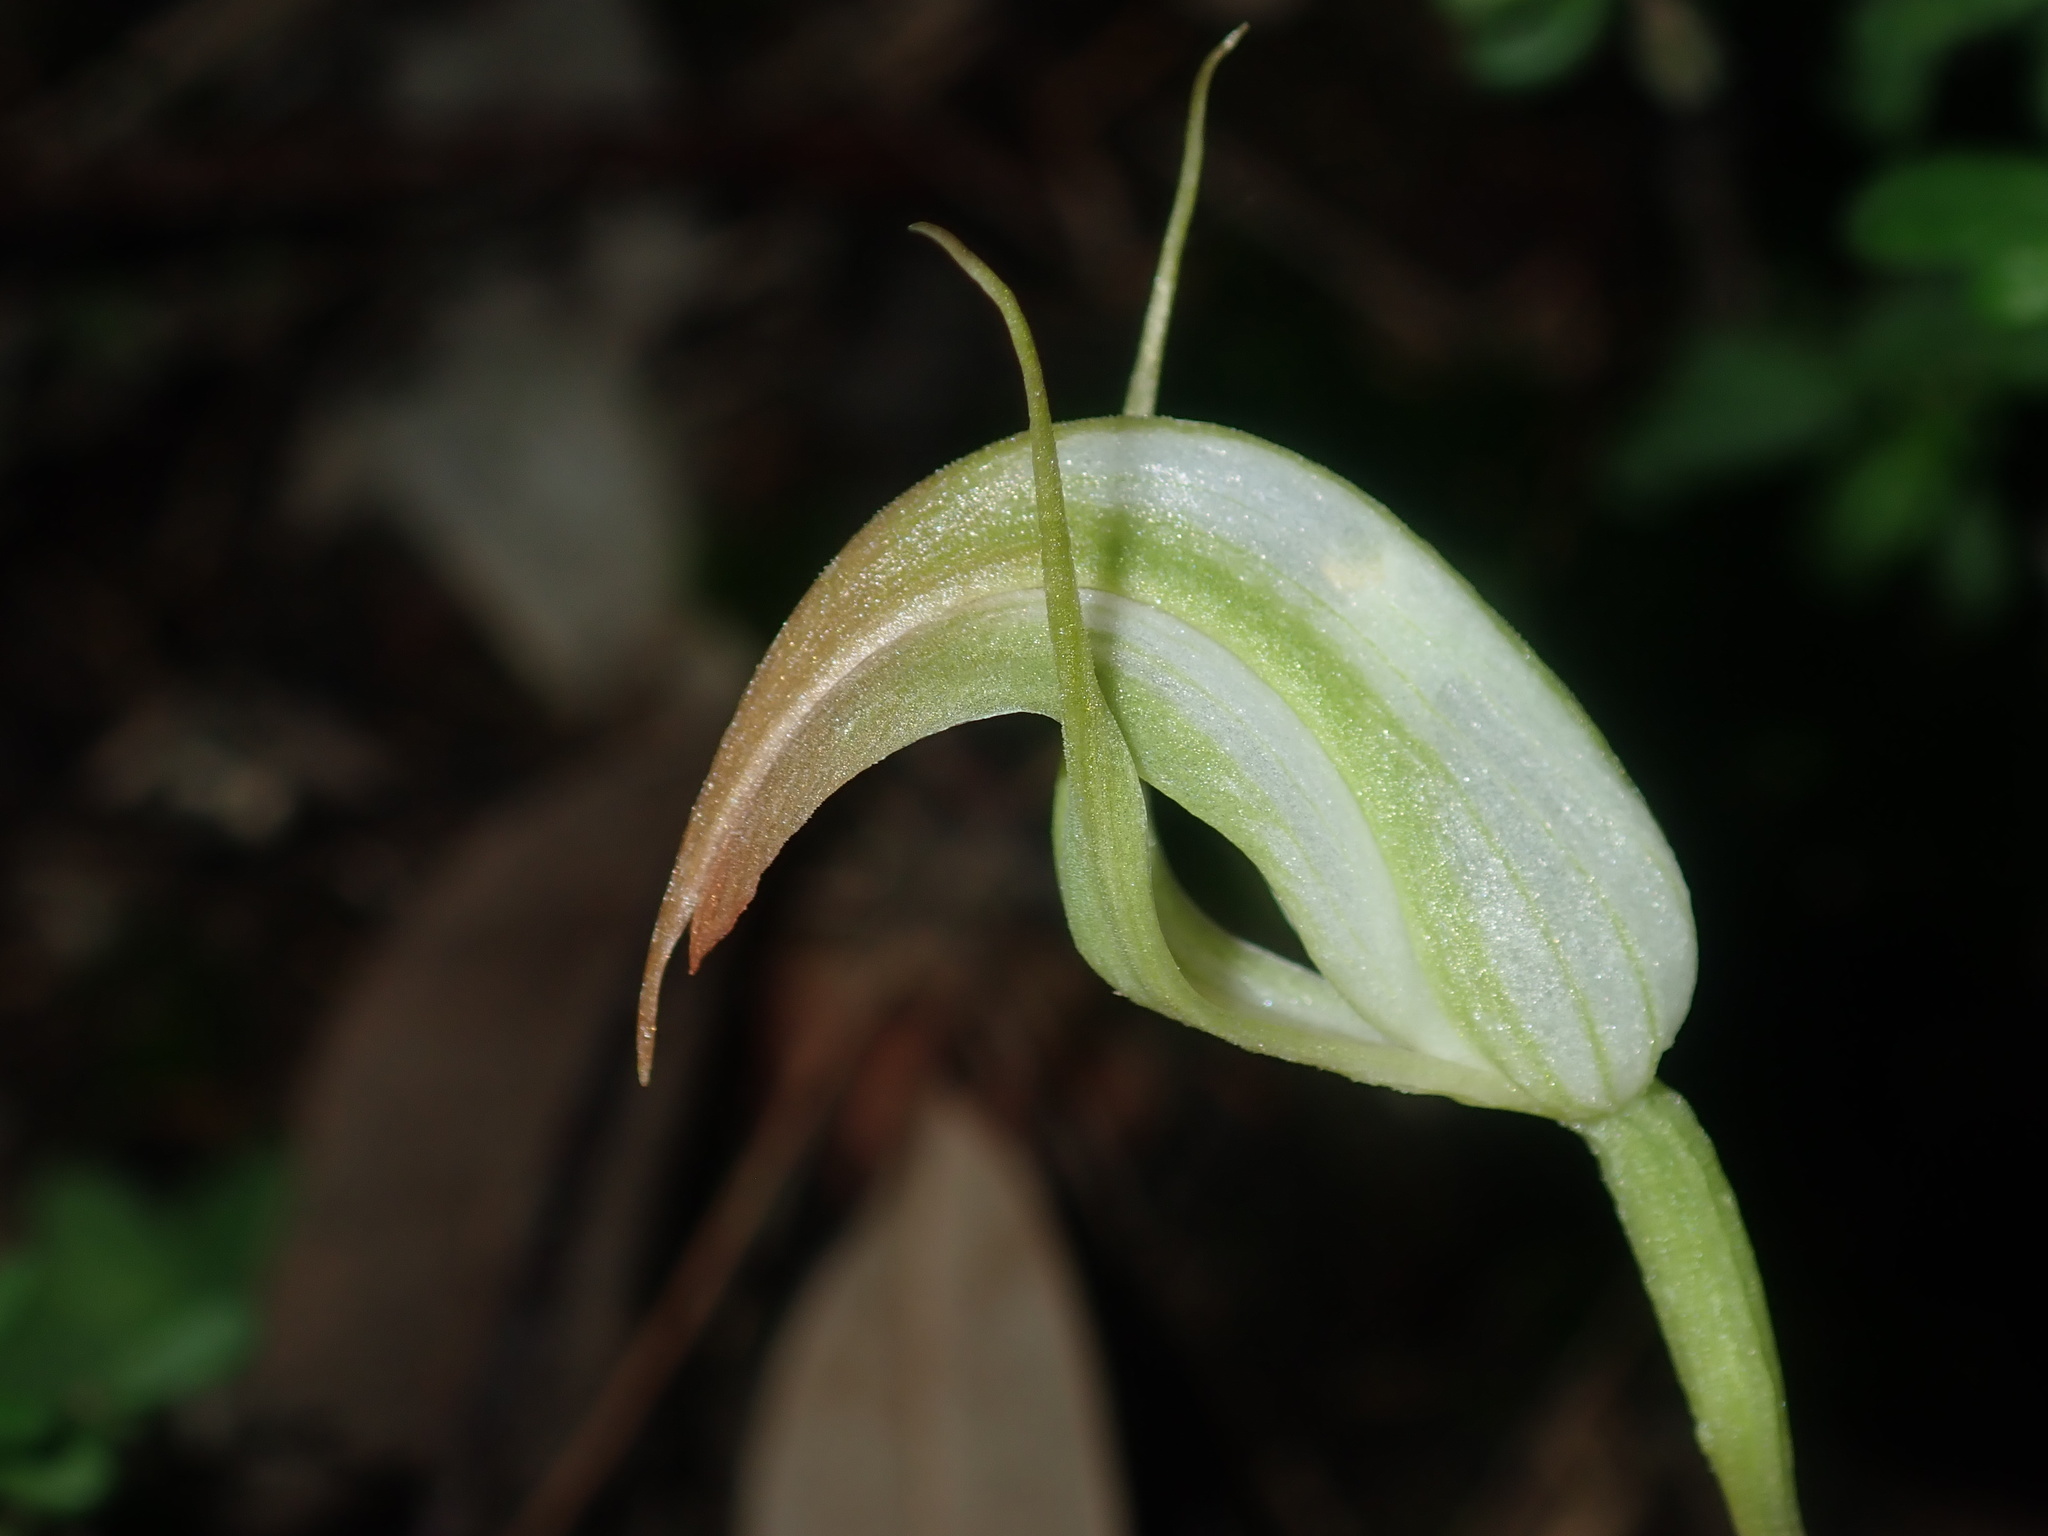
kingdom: Plantae
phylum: Tracheophyta
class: Liliopsida
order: Asparagales
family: Orchidaceae
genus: Pterostylis
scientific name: Pterostylis acuminata
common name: Pointed greenhood
